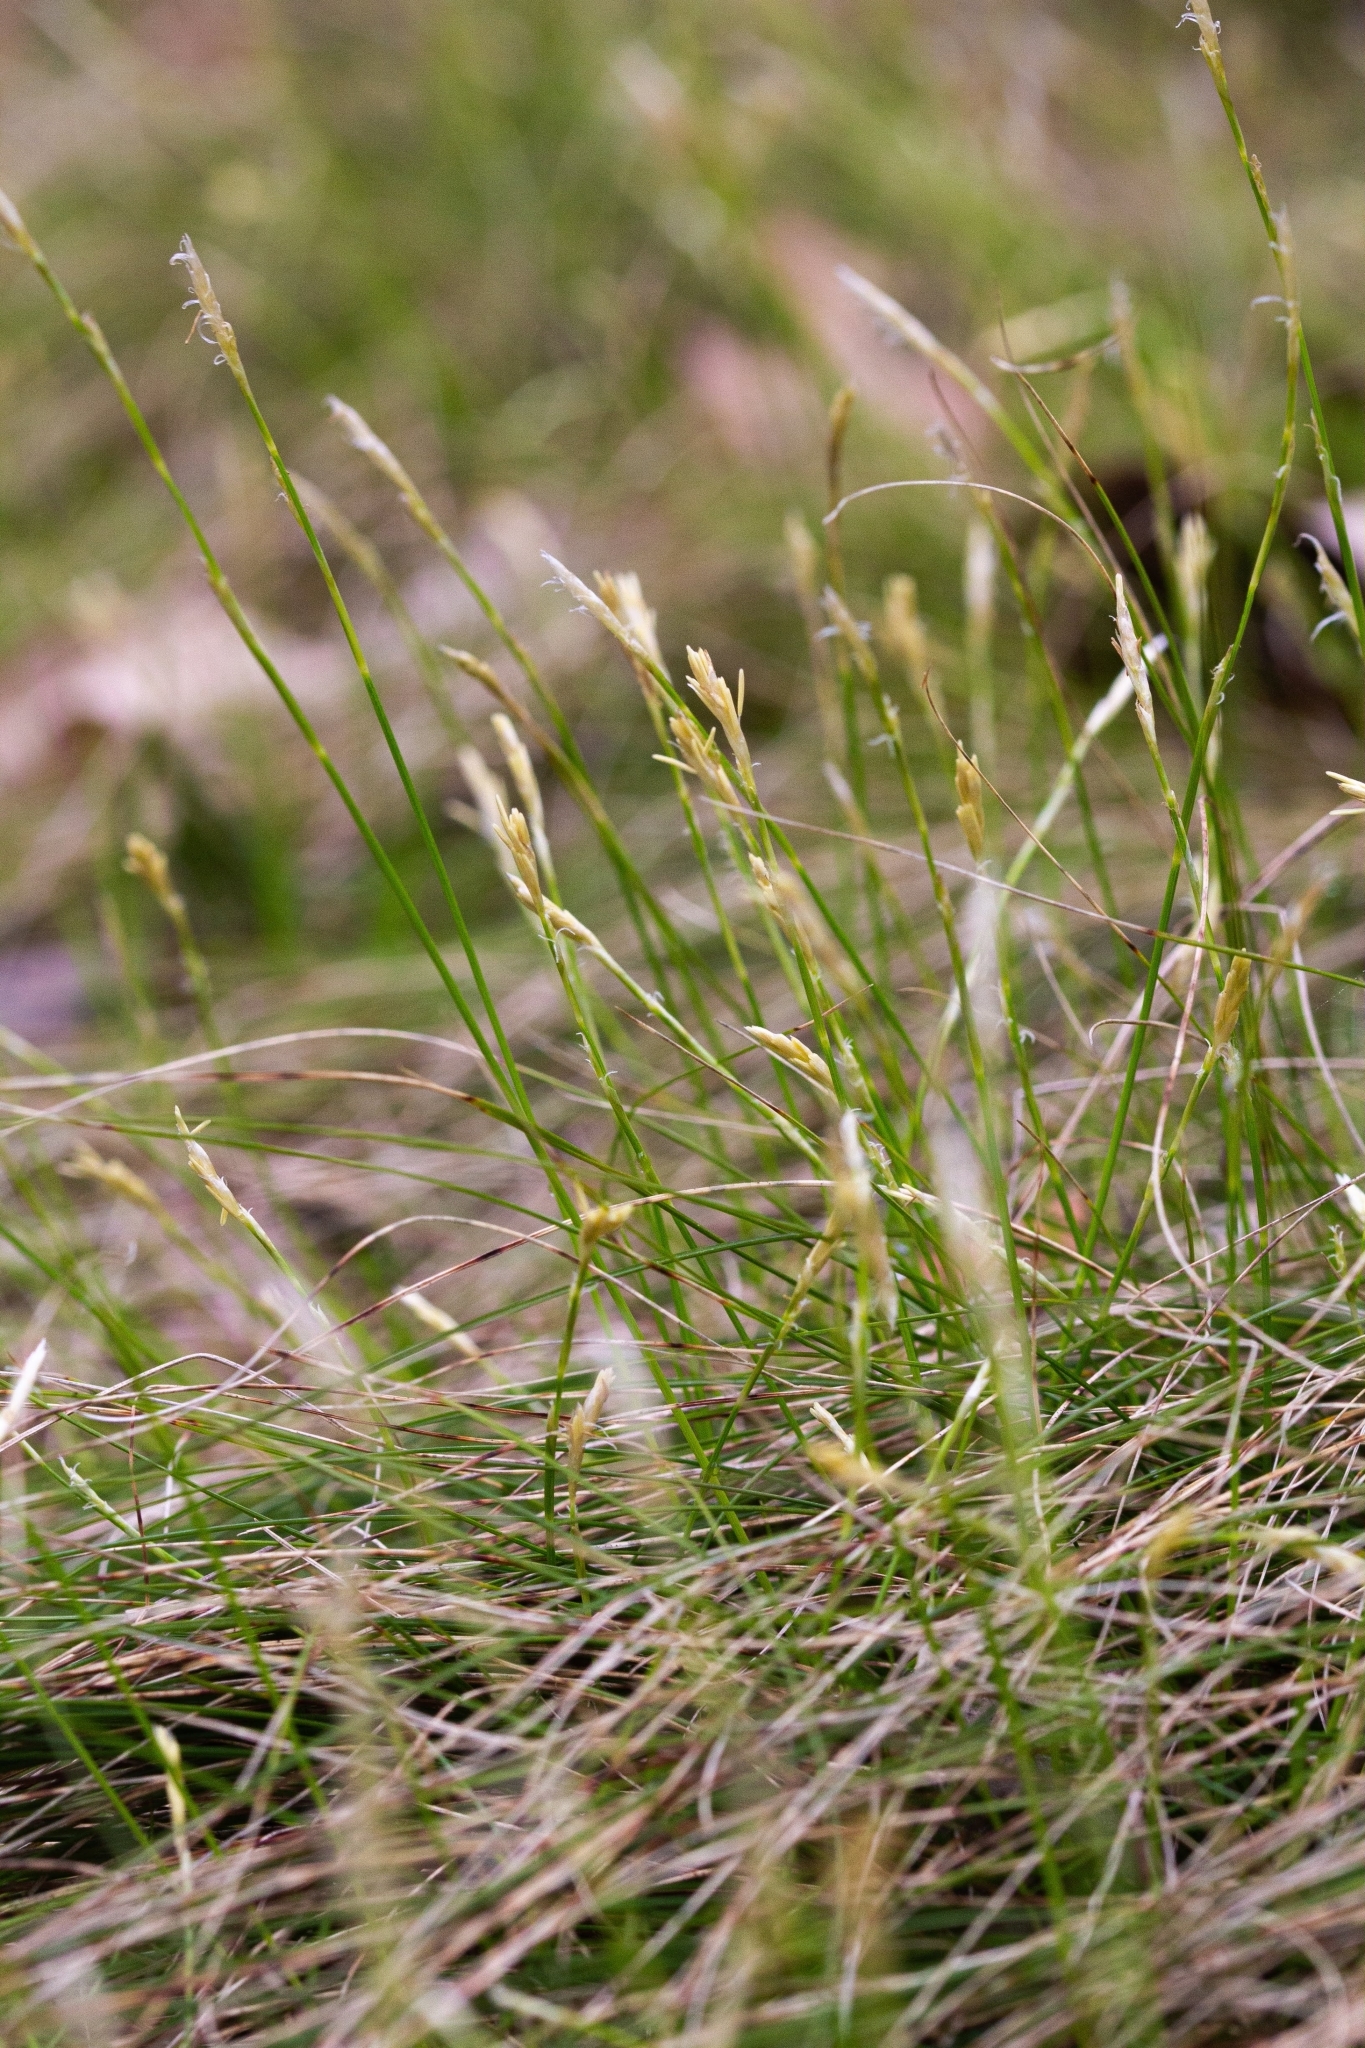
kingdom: Plantae
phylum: Tracheophyta
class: Liliopsida
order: Poales
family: Cyperaceae
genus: Carex
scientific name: Carex eburnea
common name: Bristle-leaved sedge
